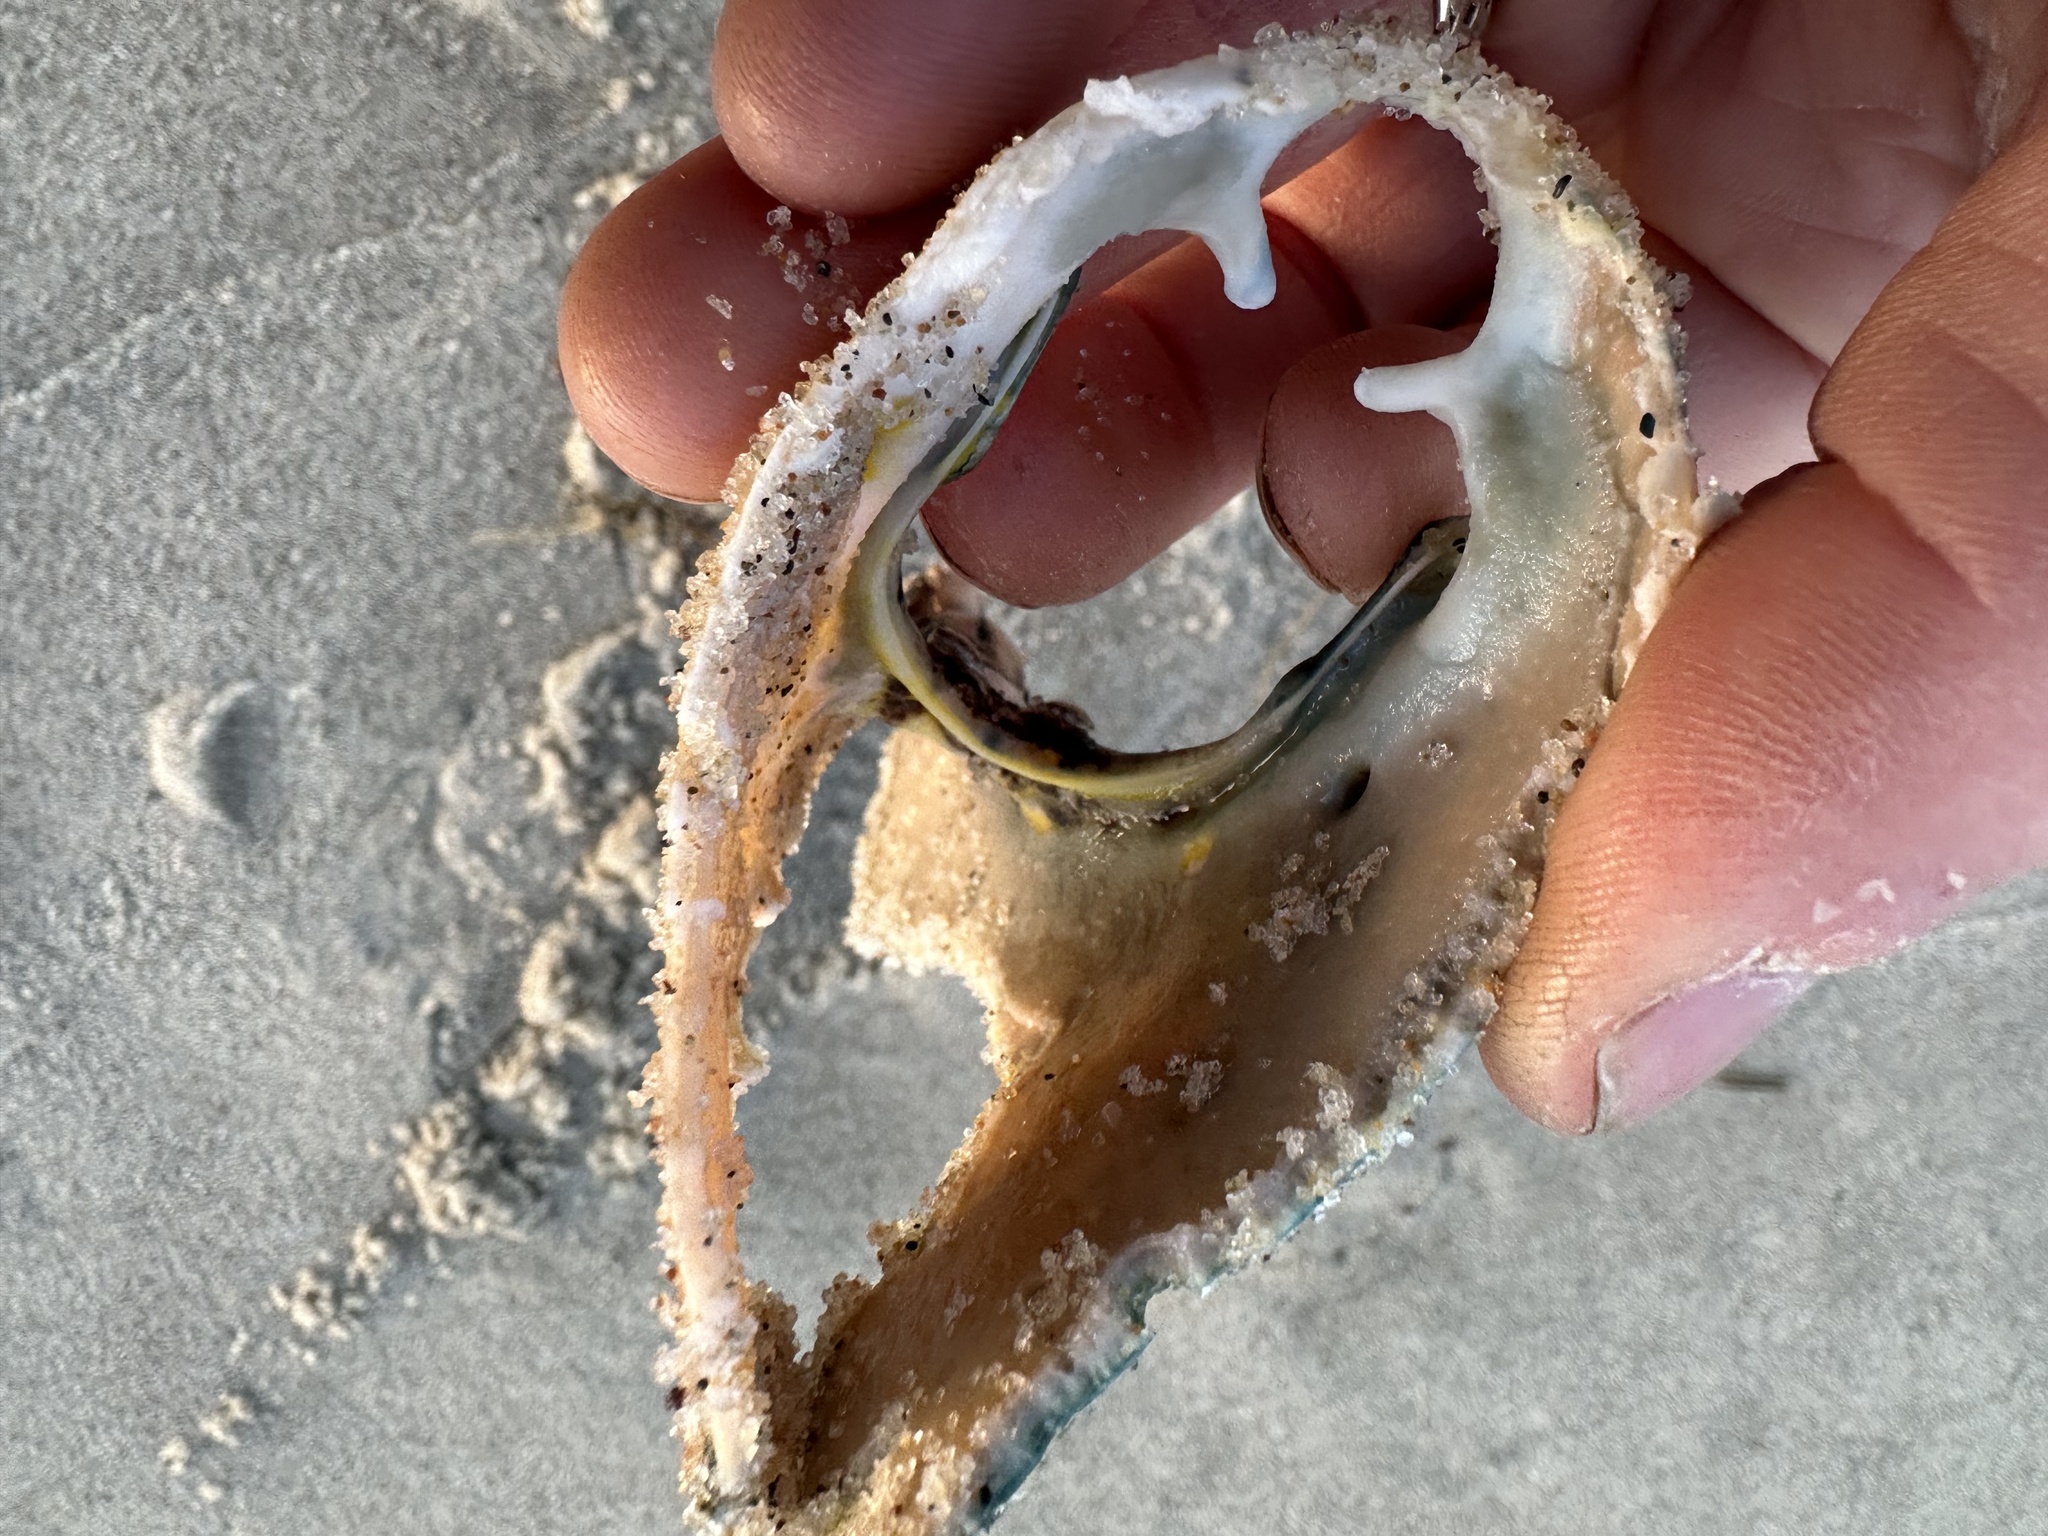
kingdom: Animalia
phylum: Arthropoda
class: Malacostraca
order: Decapoda
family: Nephropidae
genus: Homarus
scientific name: Homarus americanus
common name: American lobster
